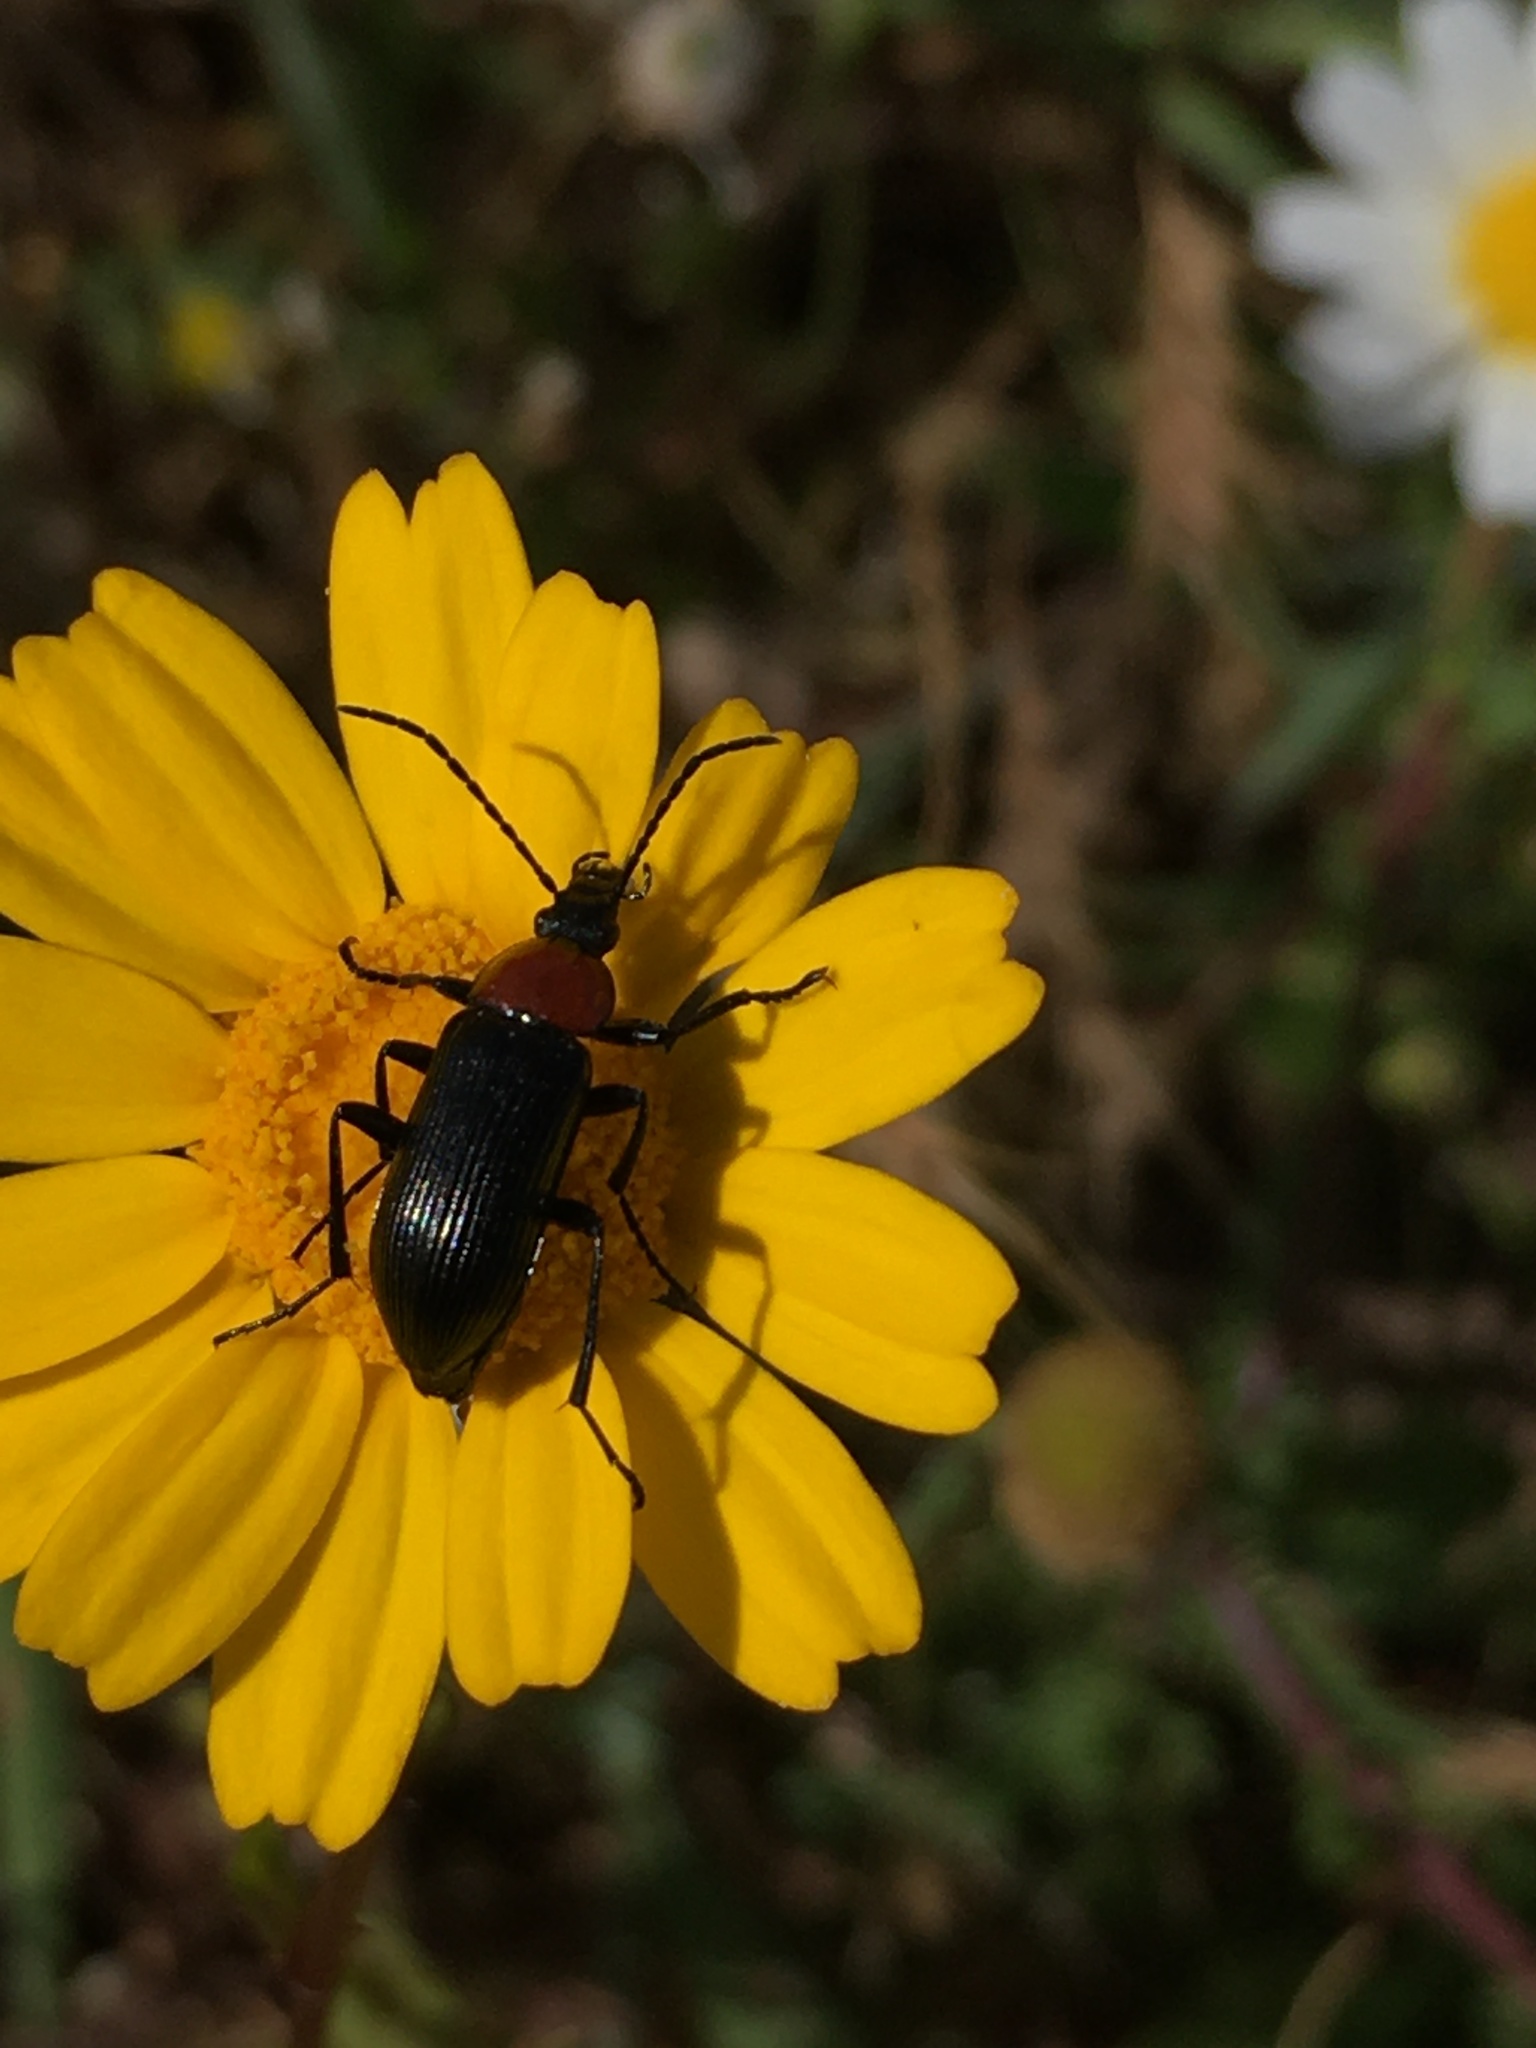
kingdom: Animalia
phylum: Arthropoda
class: Insecta
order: Coleoptera
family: Tenebrionidae
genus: Heliotaurus
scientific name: Heliotaurus ruficollis
